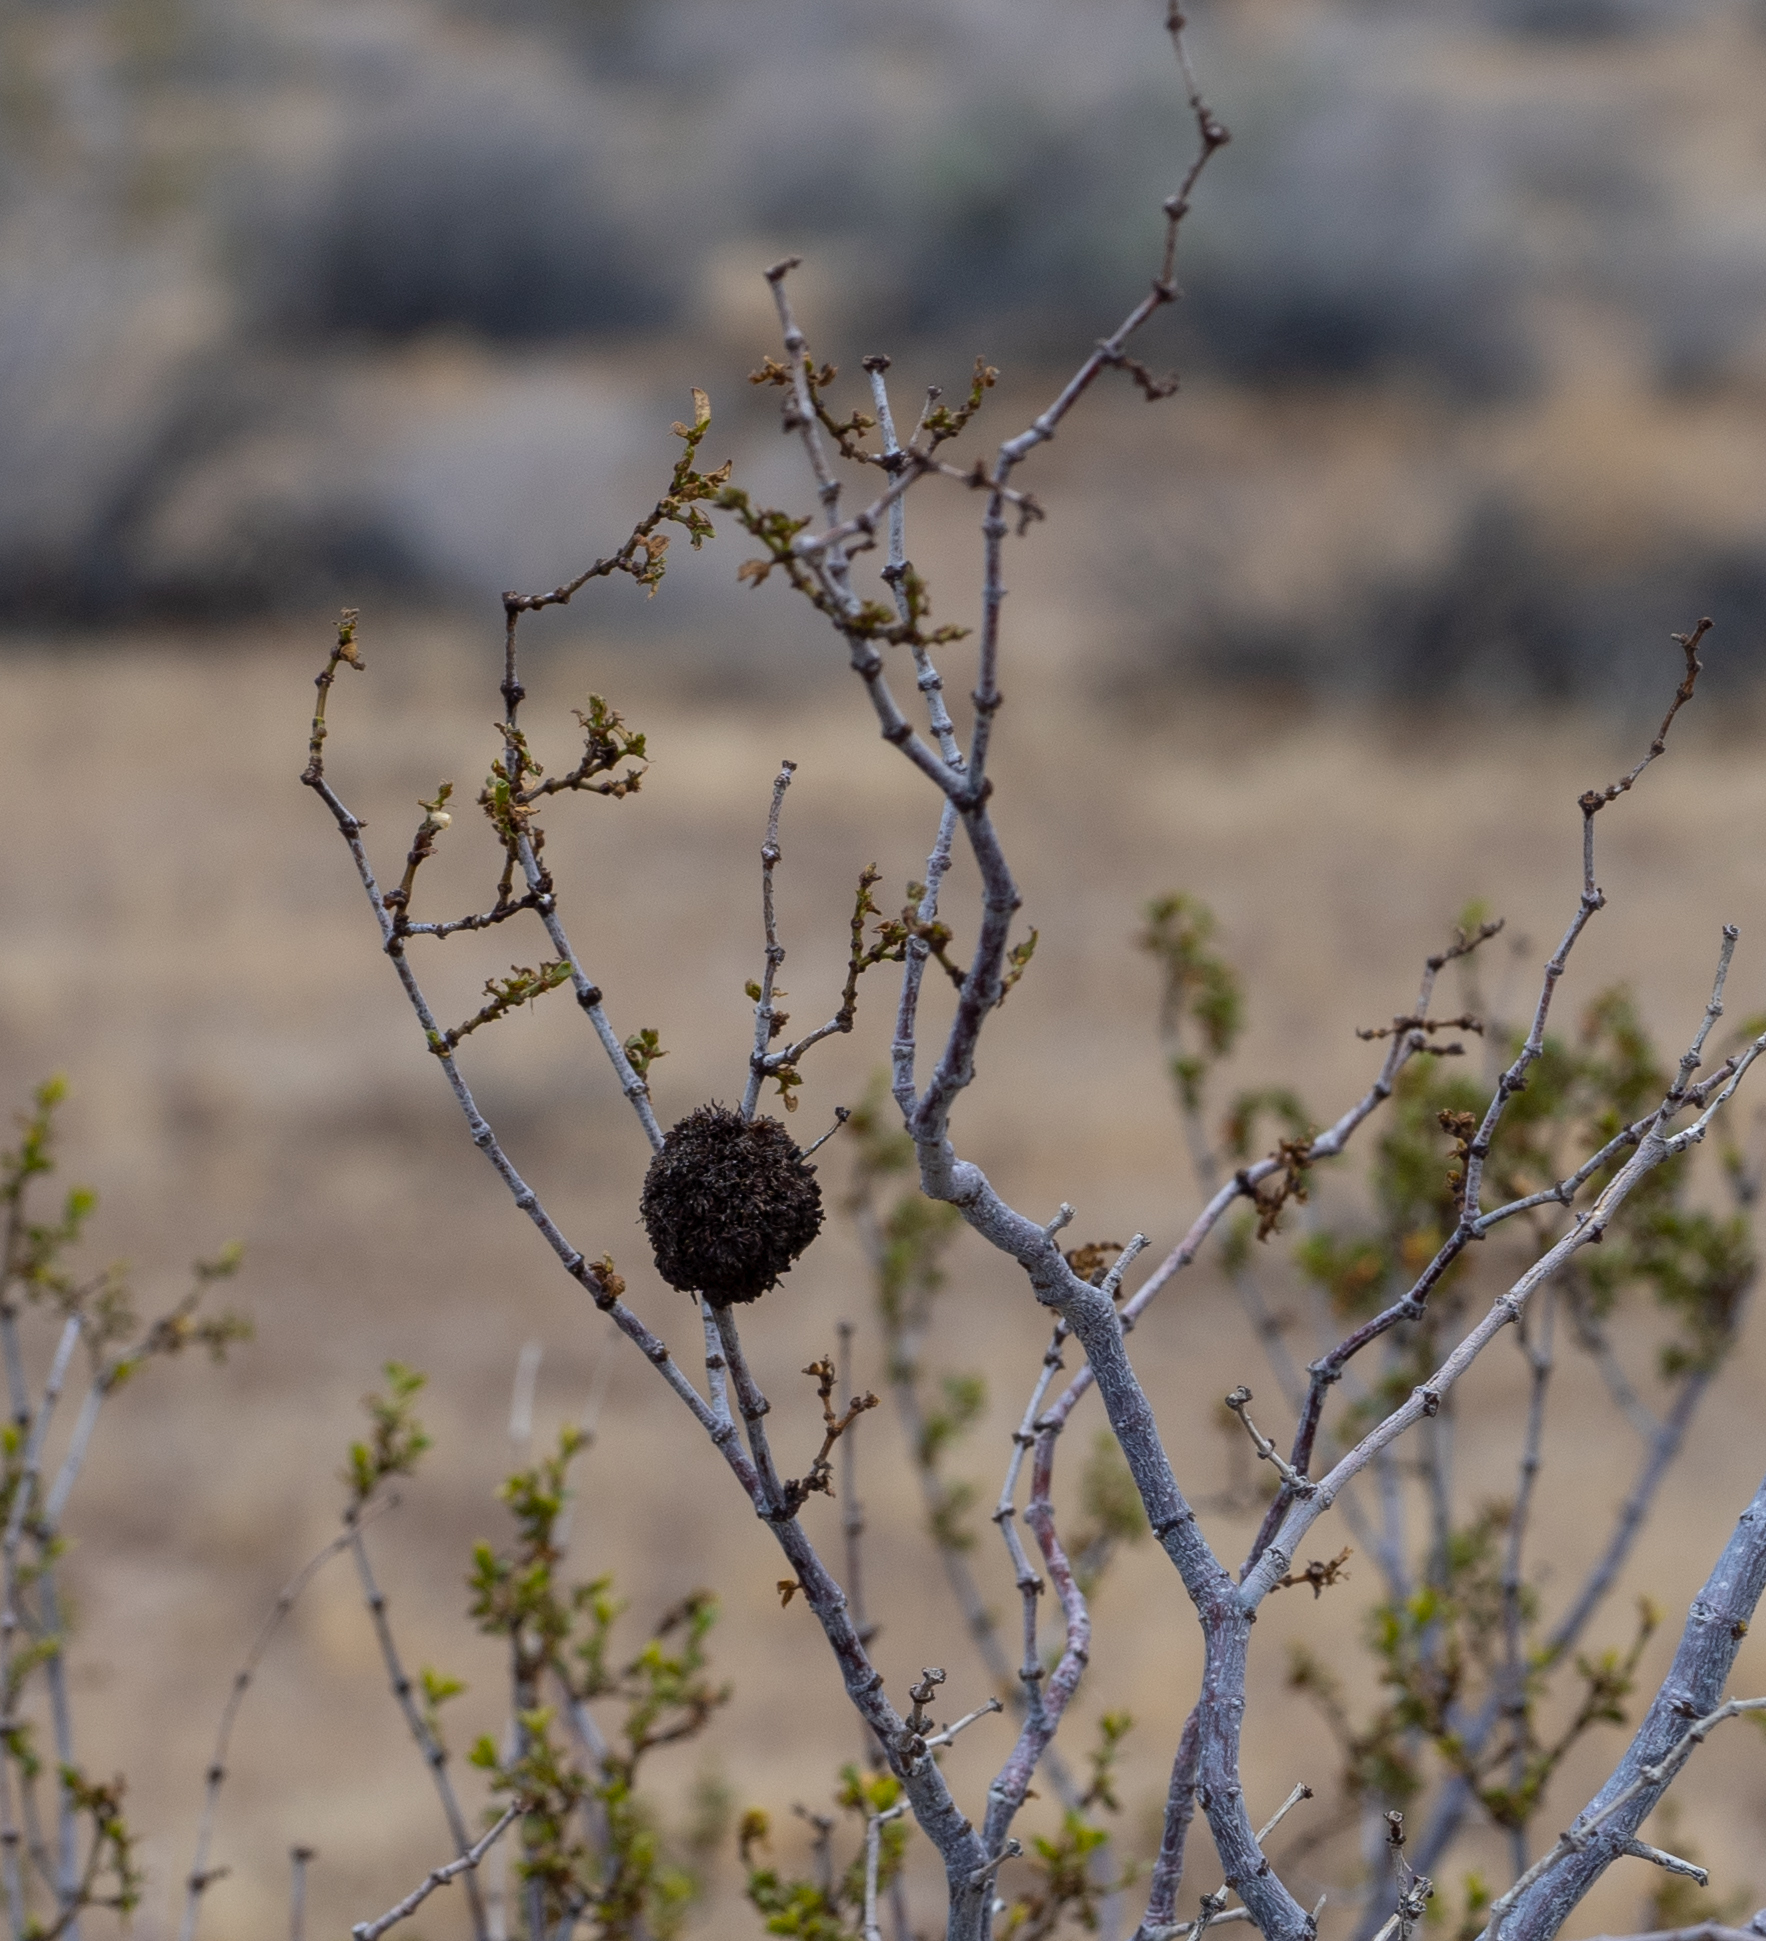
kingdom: Animalia
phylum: Arthropoda
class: Insecta
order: Diptera
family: Cecidomyiidae
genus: Asphondylia
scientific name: Asphondylia auripila
